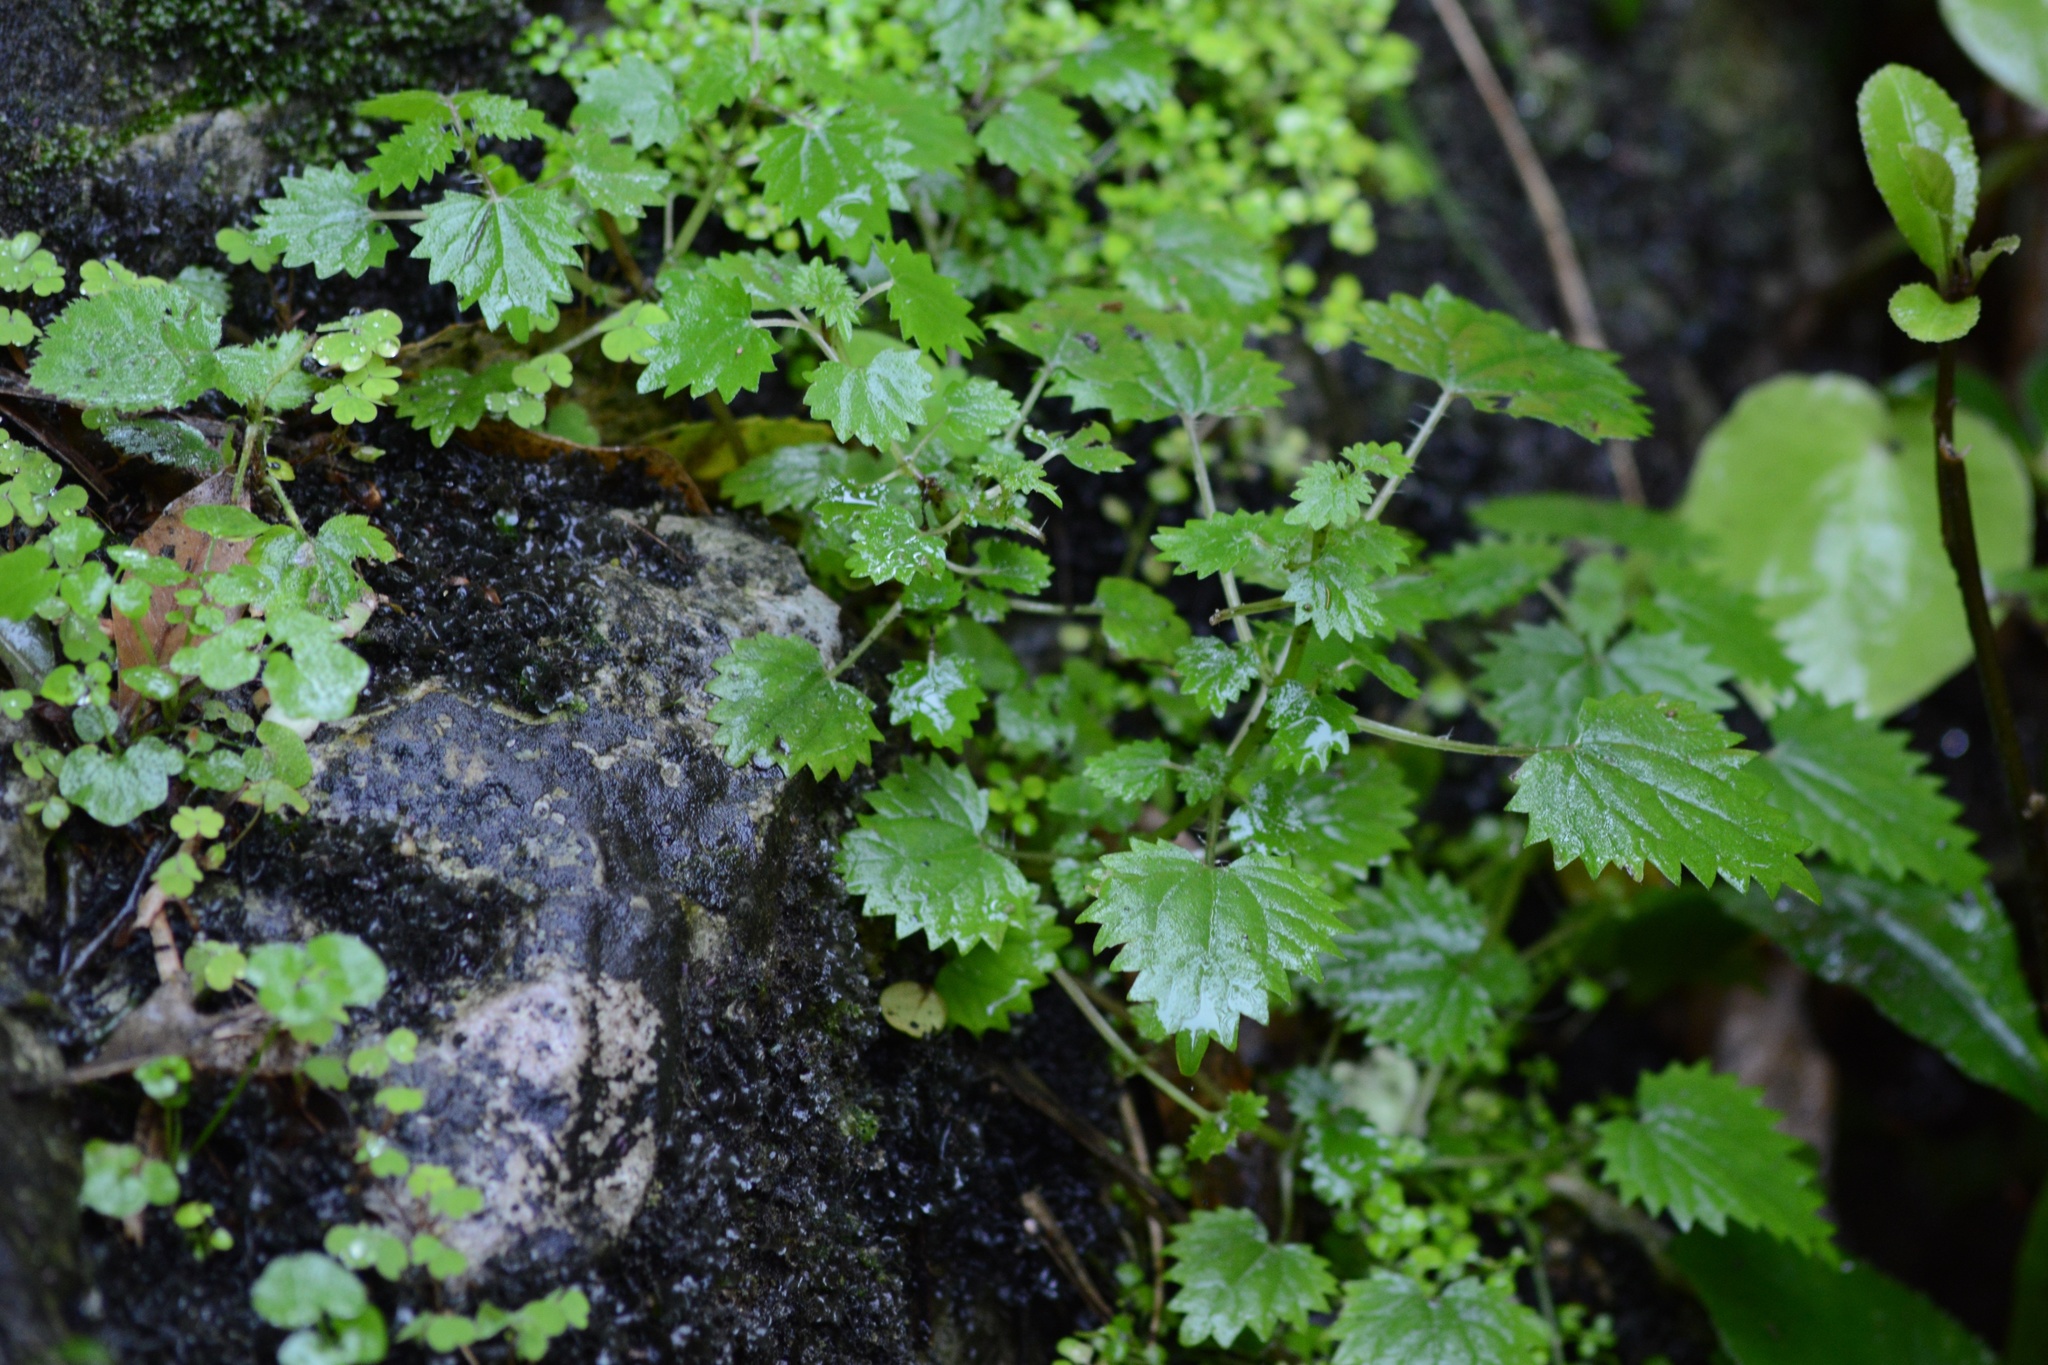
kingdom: Plantae
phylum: Tracheophyta
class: Magnoliopsida
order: Rosales
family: Urticaceae
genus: Urtica
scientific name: Urtica sykesii
